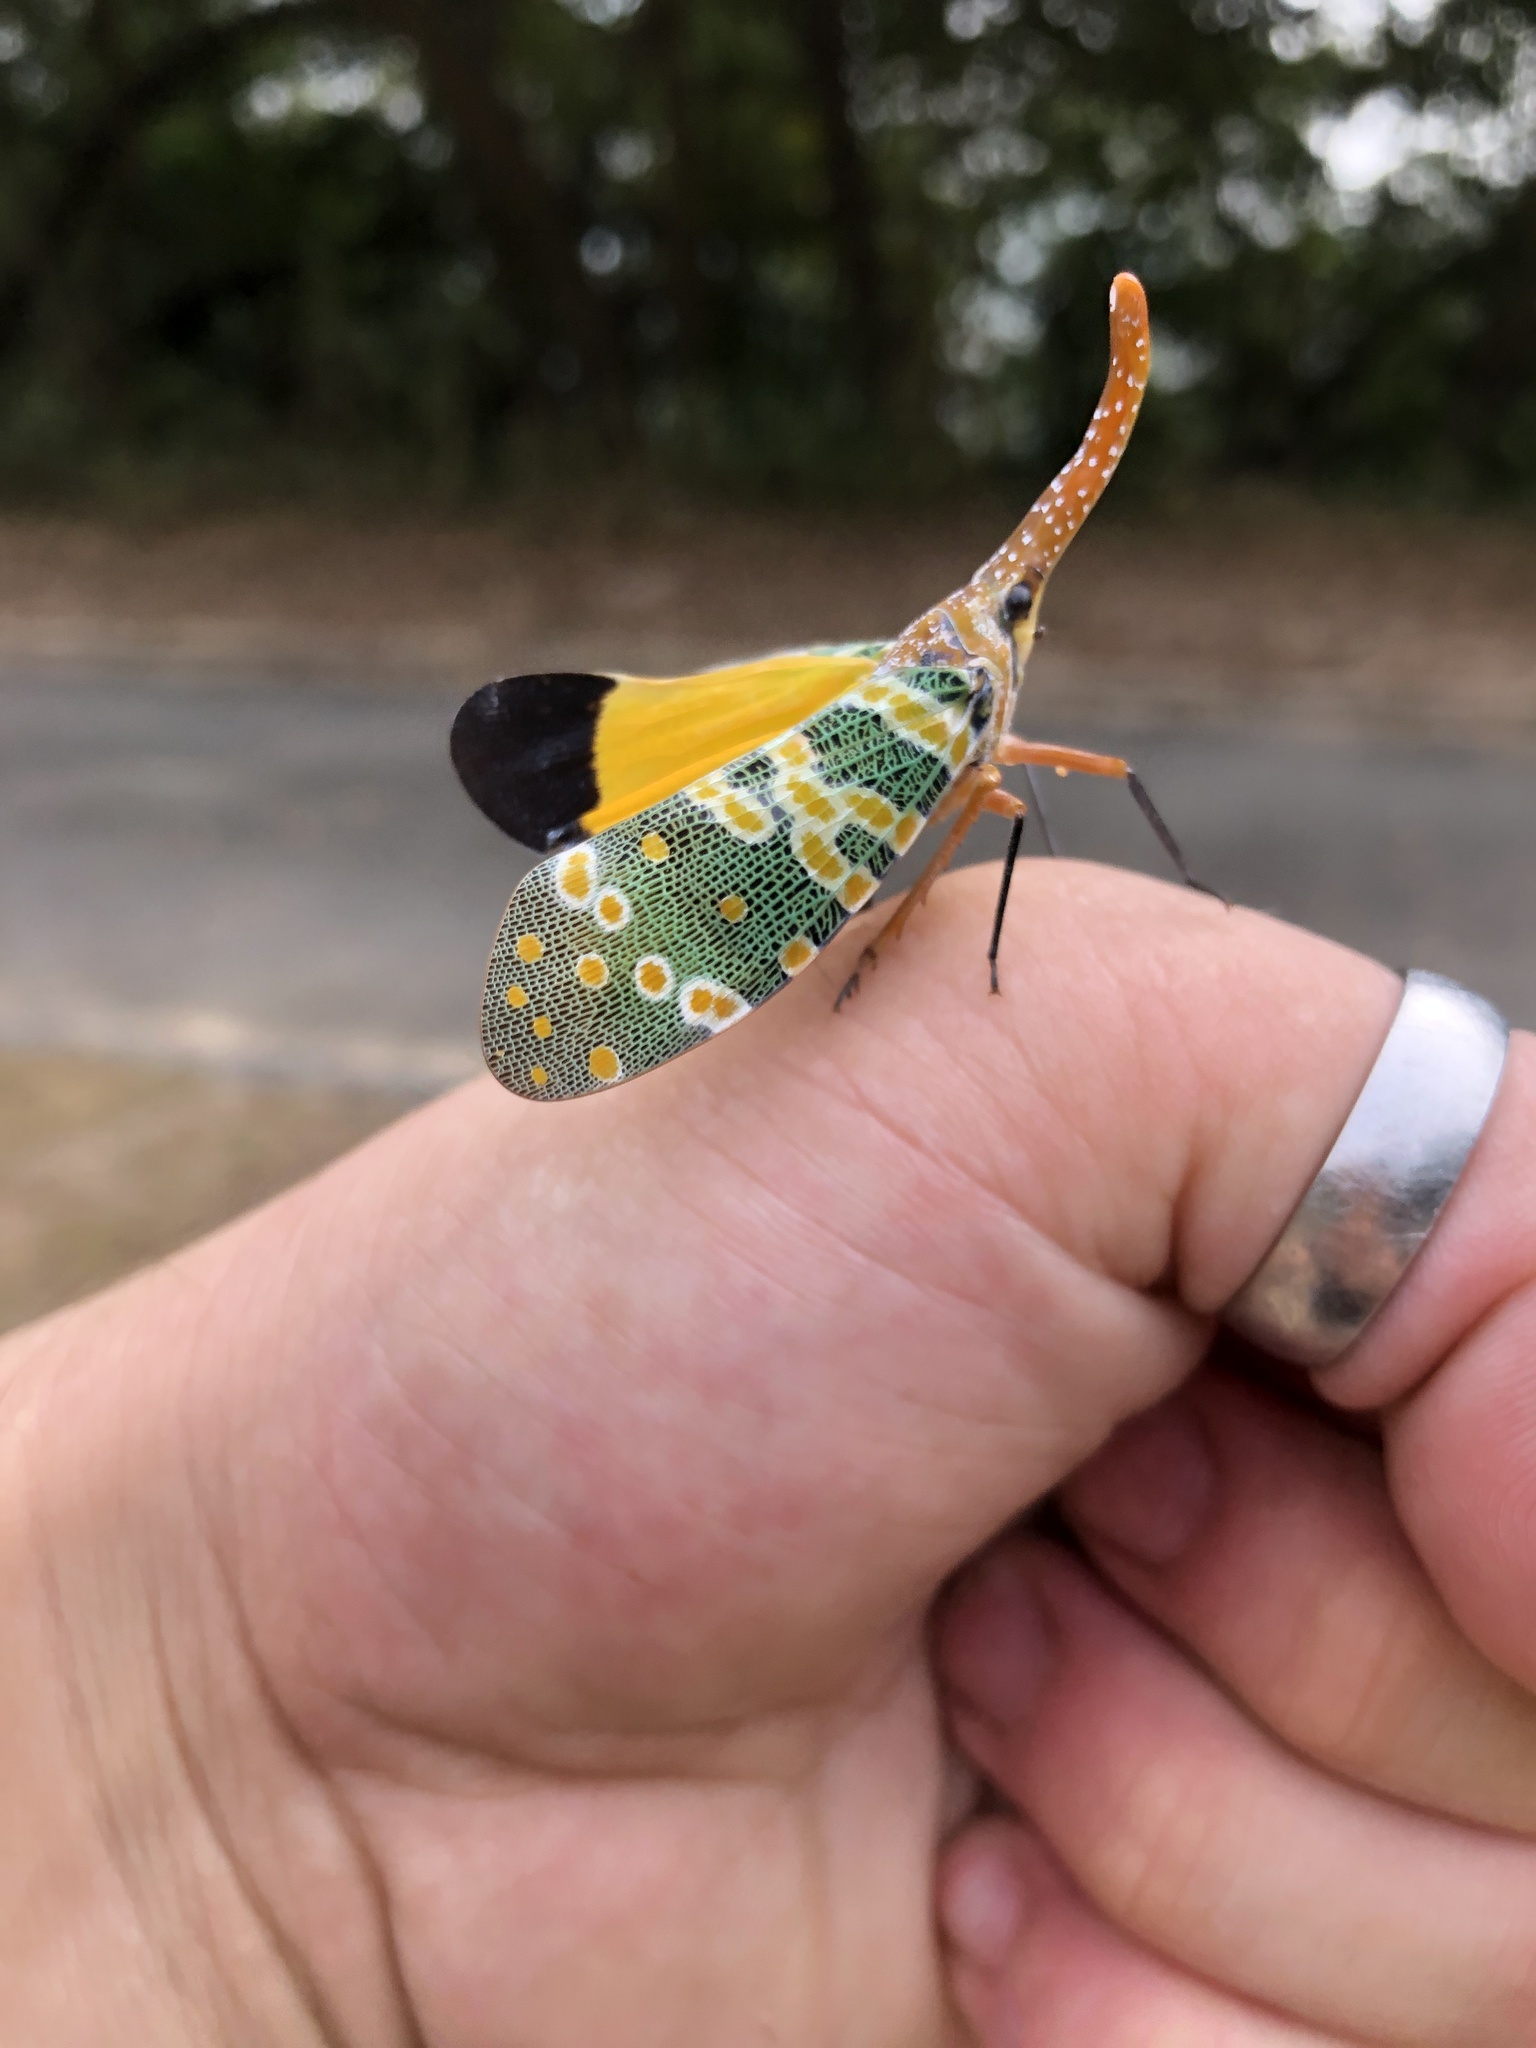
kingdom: Animalia
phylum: Arthropoda
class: Insecta
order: Hemiptera
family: Fulgoridae
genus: Pyrops
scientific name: Pyrops candelaria
